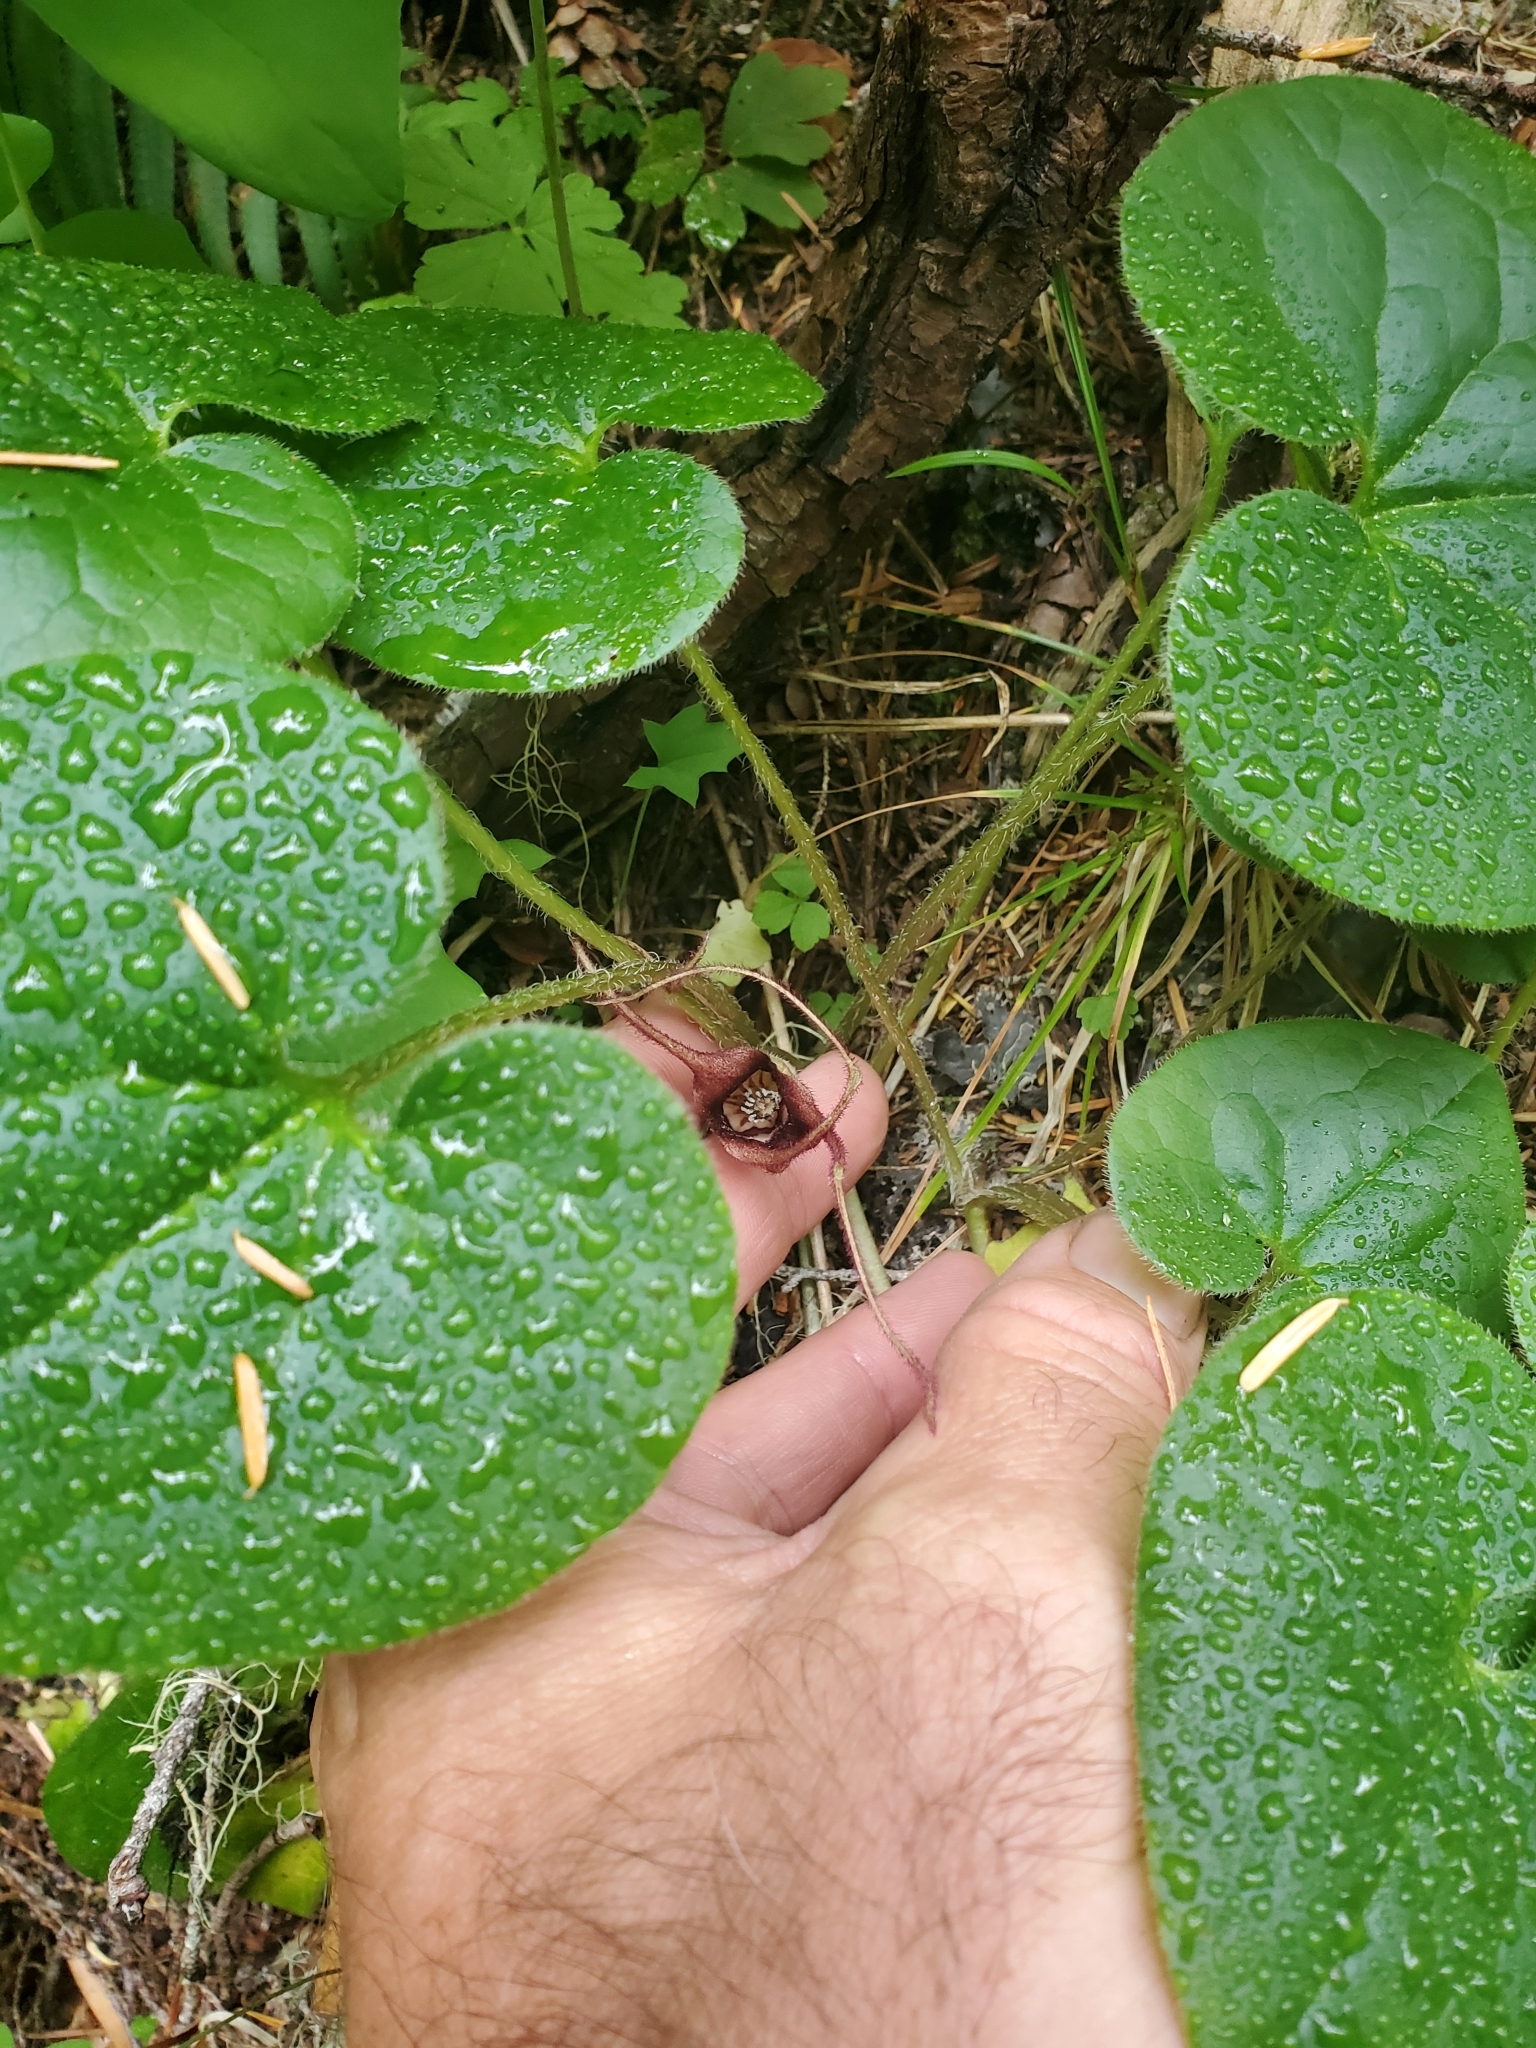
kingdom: Plantae
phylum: Tracheophyta
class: Magnoliopsida
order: Piperales
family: Aristolochiaceae
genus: Asarum
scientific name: Asarum caudatum
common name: Wild ginger
